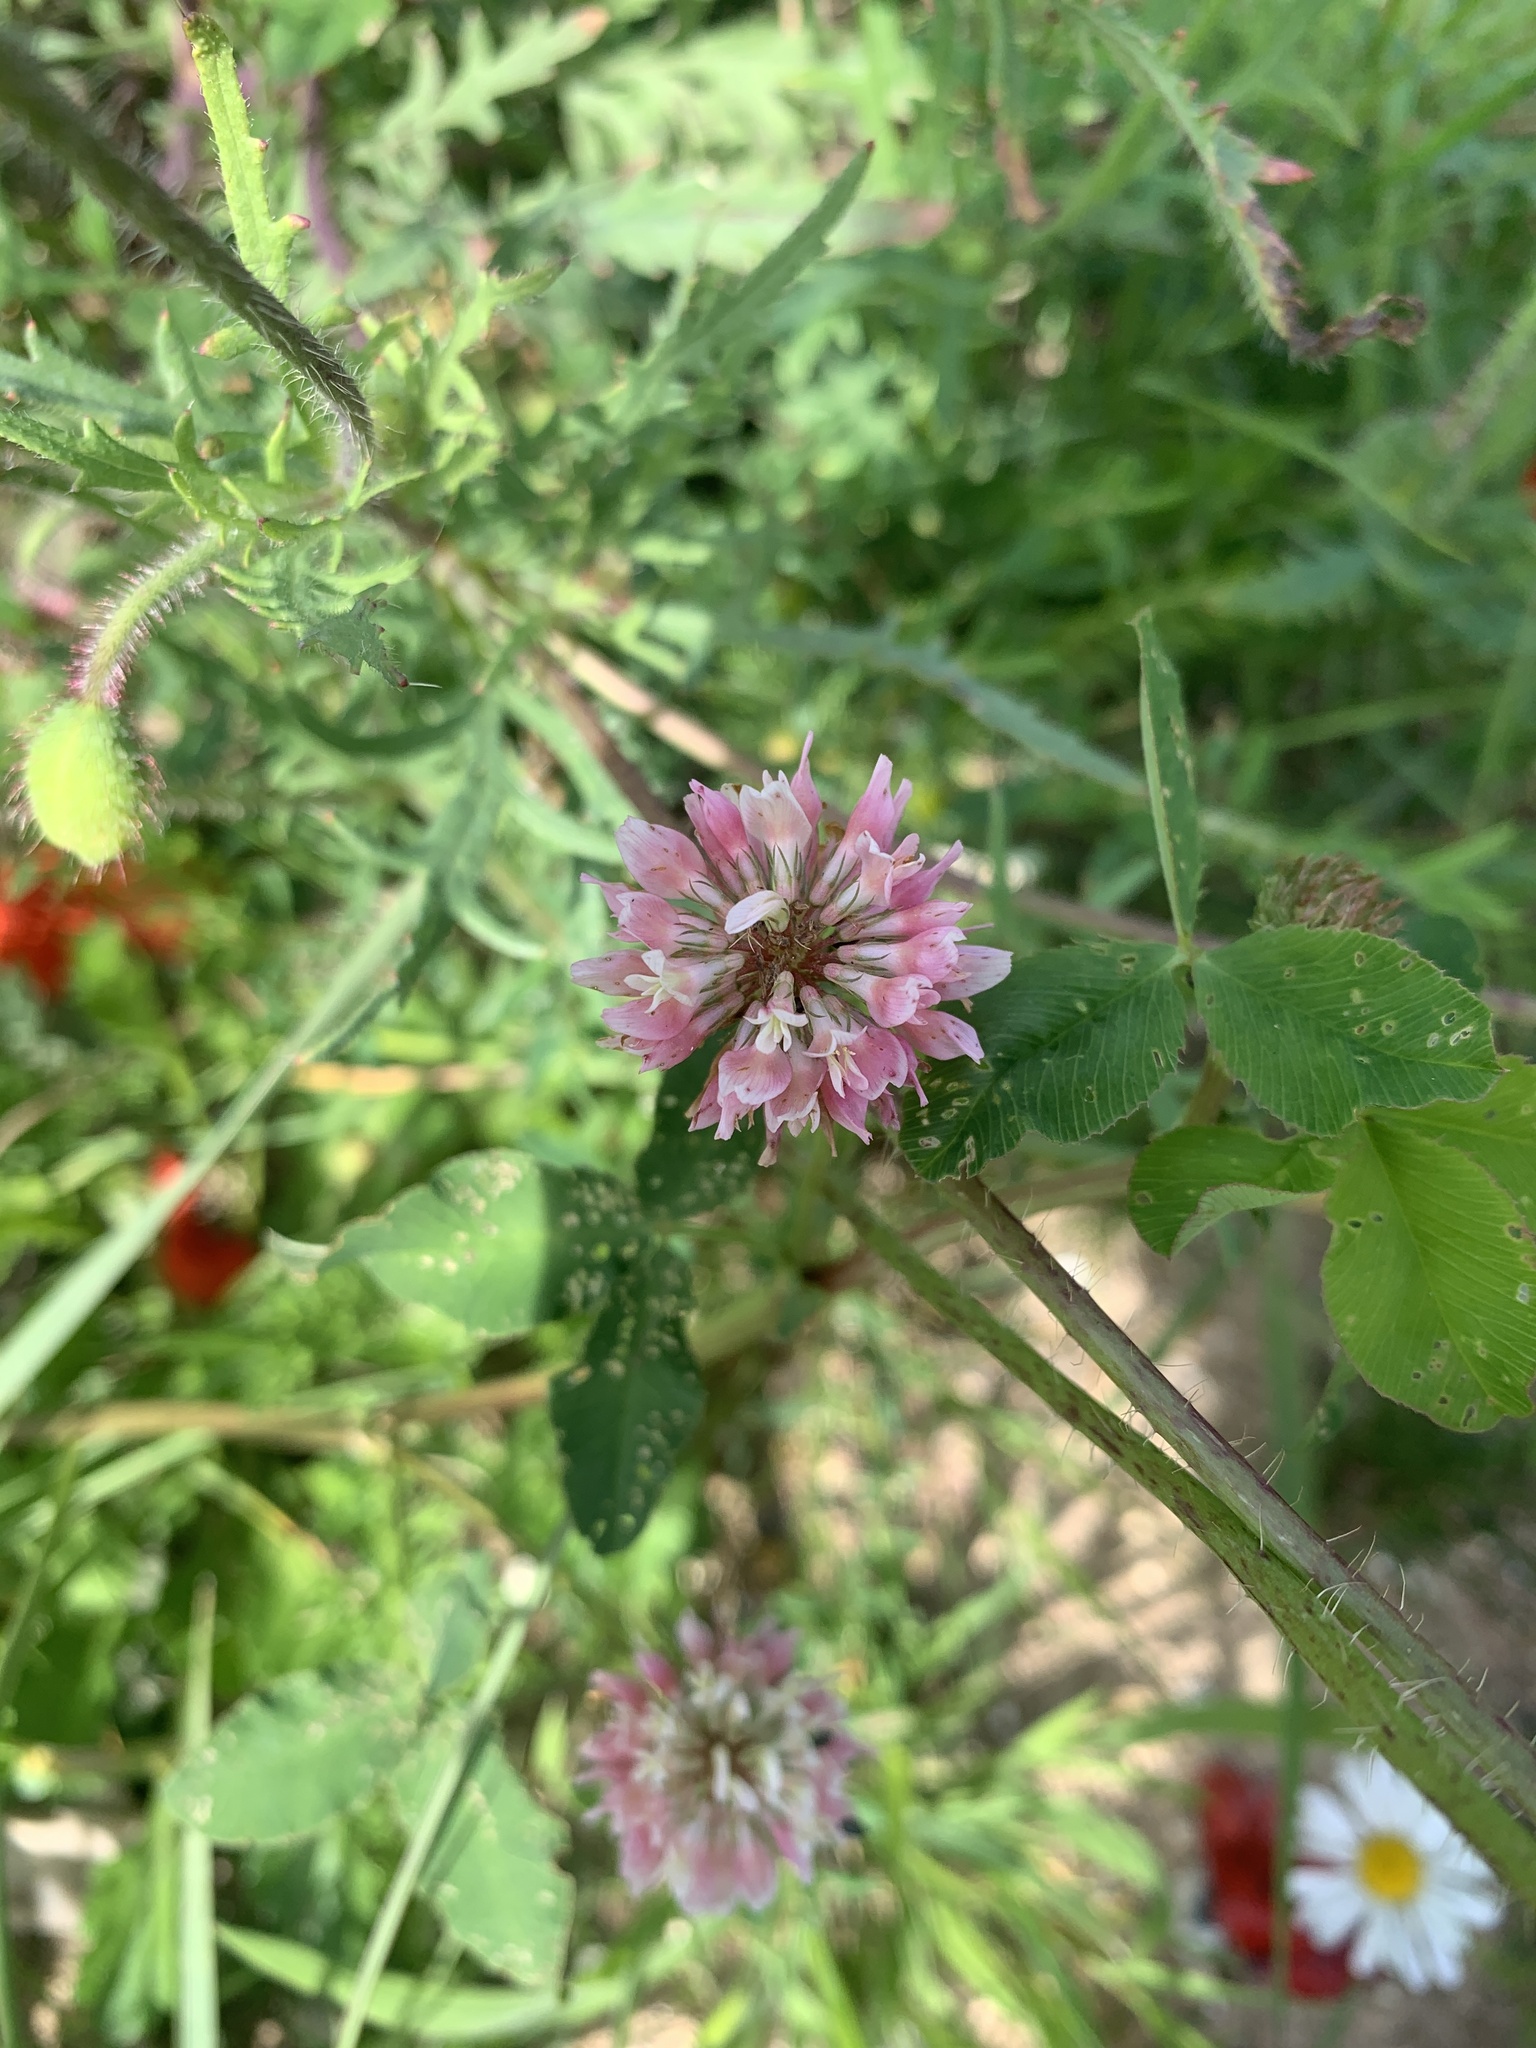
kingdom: Plantae
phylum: Tracheophyta
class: Magnoliopsida
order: Fabales
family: Fabaceae
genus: Trifolium
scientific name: Trifolium pratense
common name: Red clover
